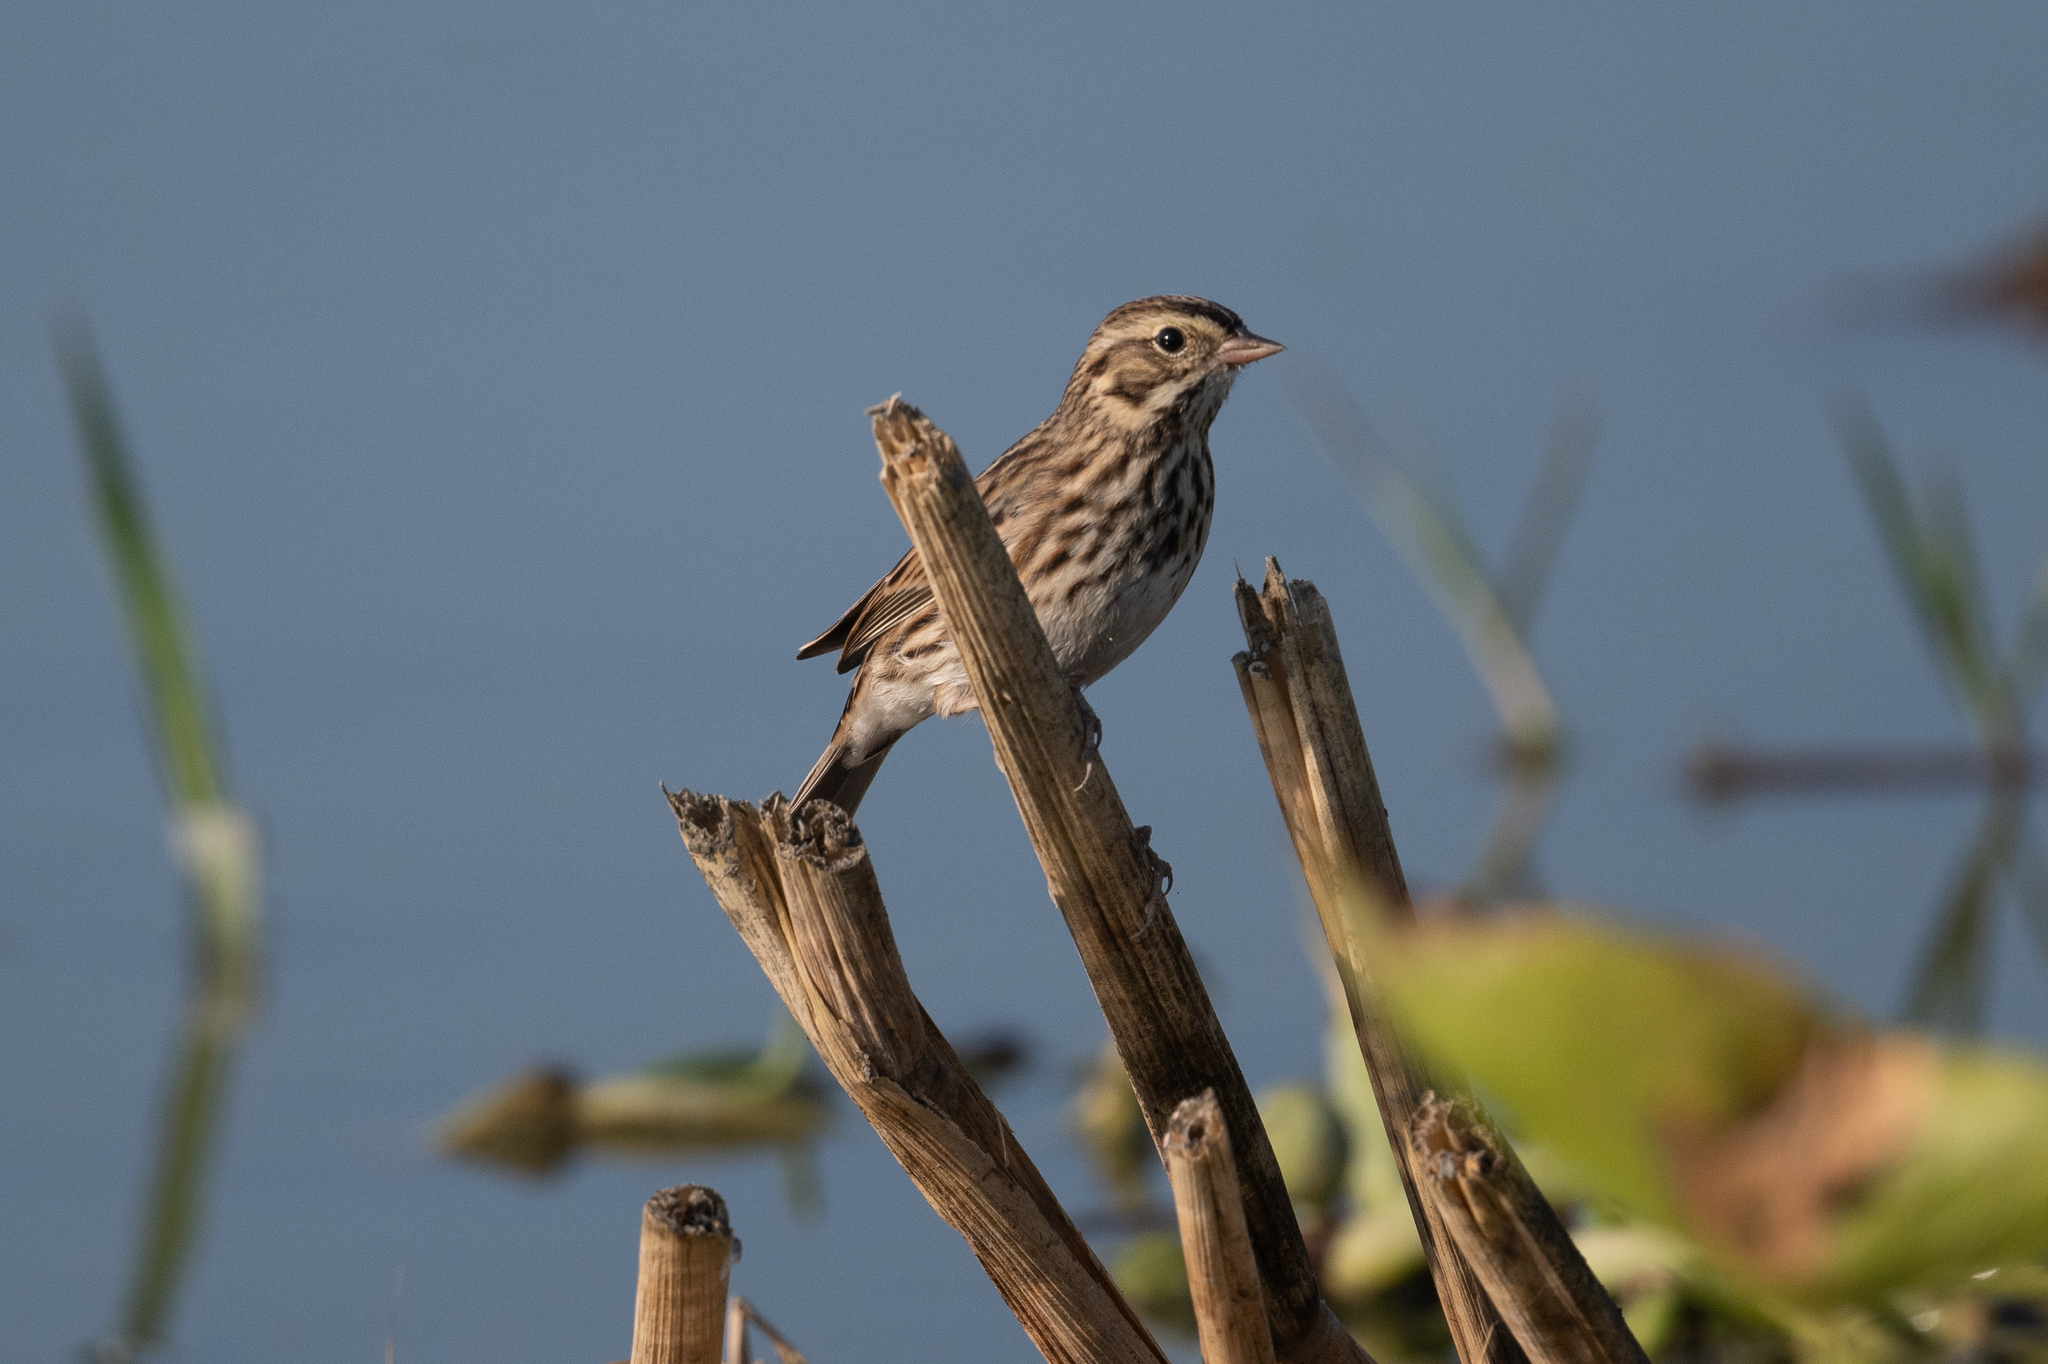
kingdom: Animalia
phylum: Chordata
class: Aves
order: Passeriformes
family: Passerellidae
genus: Passerculus
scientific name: Passerculus sandwichensis
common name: Savannah sparrow
